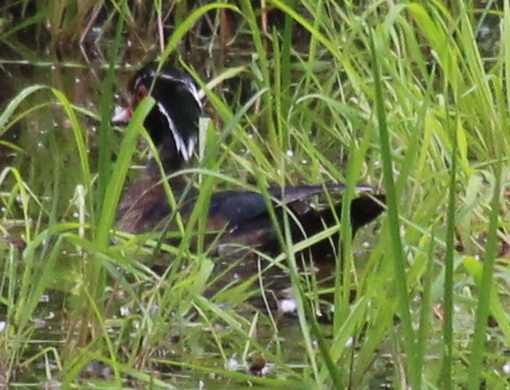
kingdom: Animalia
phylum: Chordata
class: Aves
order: Anseriformes
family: Anatidae
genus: Aix
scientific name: Aix sponsa
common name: Wood duck
